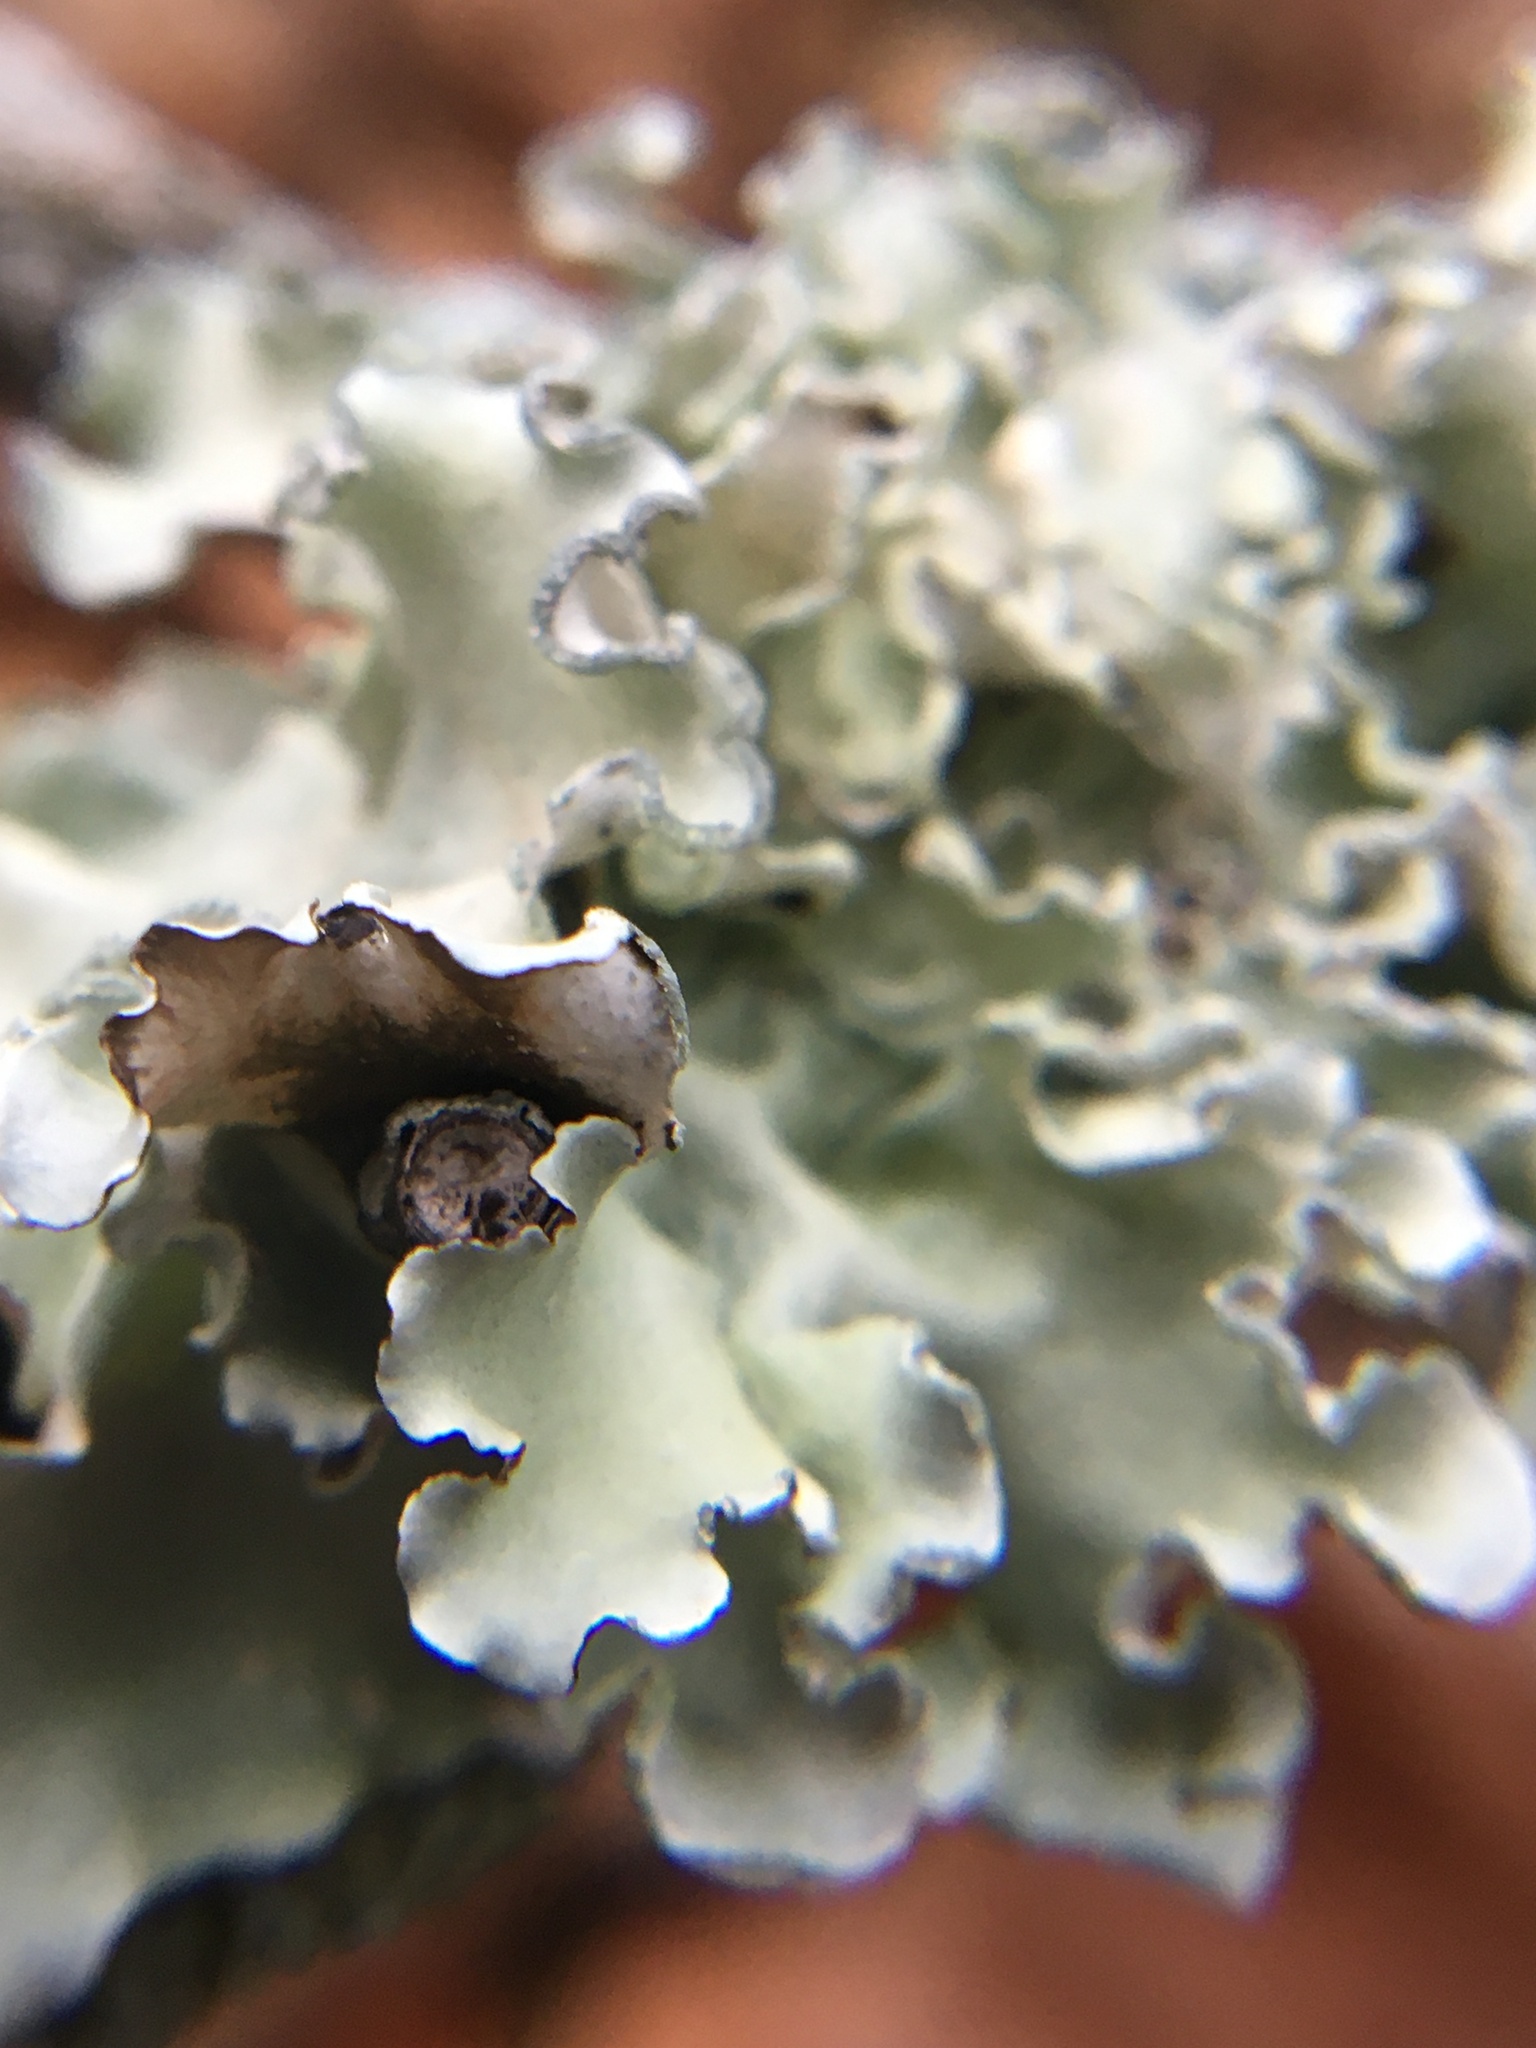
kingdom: Fungi
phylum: Ascomycota
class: Lecanoromycetes
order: Lecanorales
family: Parmeliaceae
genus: Parmotrema
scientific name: Parmotrema austrosinense
